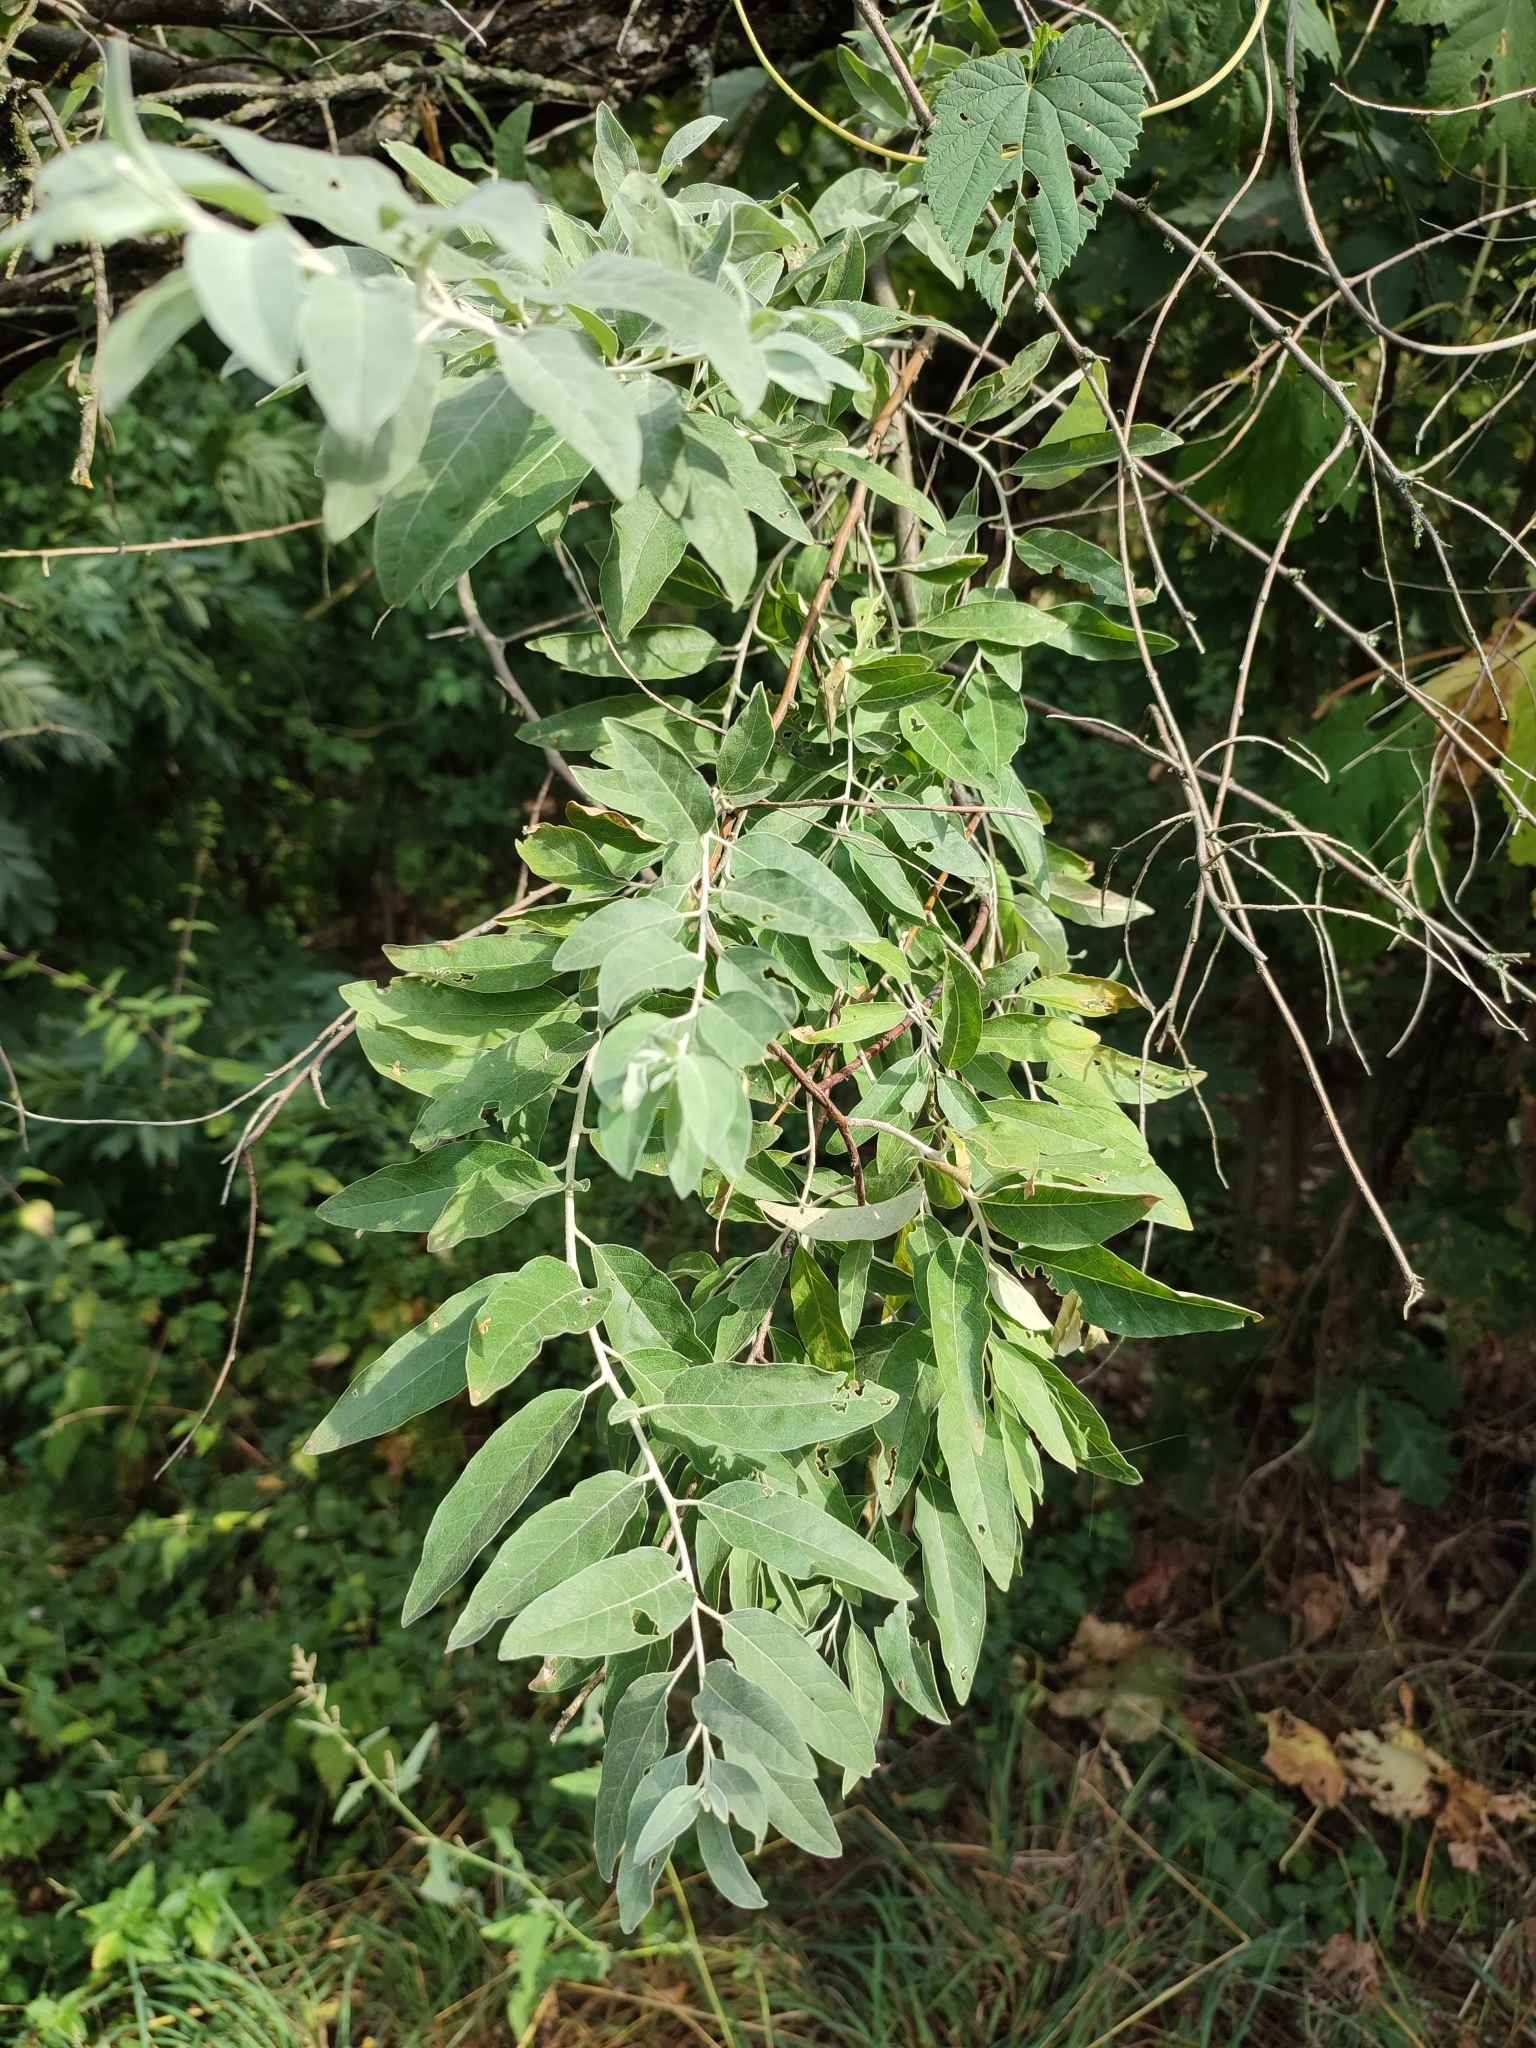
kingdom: Plantae
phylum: Tracheophyta
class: Magnoliopsida
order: Rosales
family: Elaeagnaceae
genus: Elaeagnus
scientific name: Elaeagnus angustifolia
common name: Russian olive
